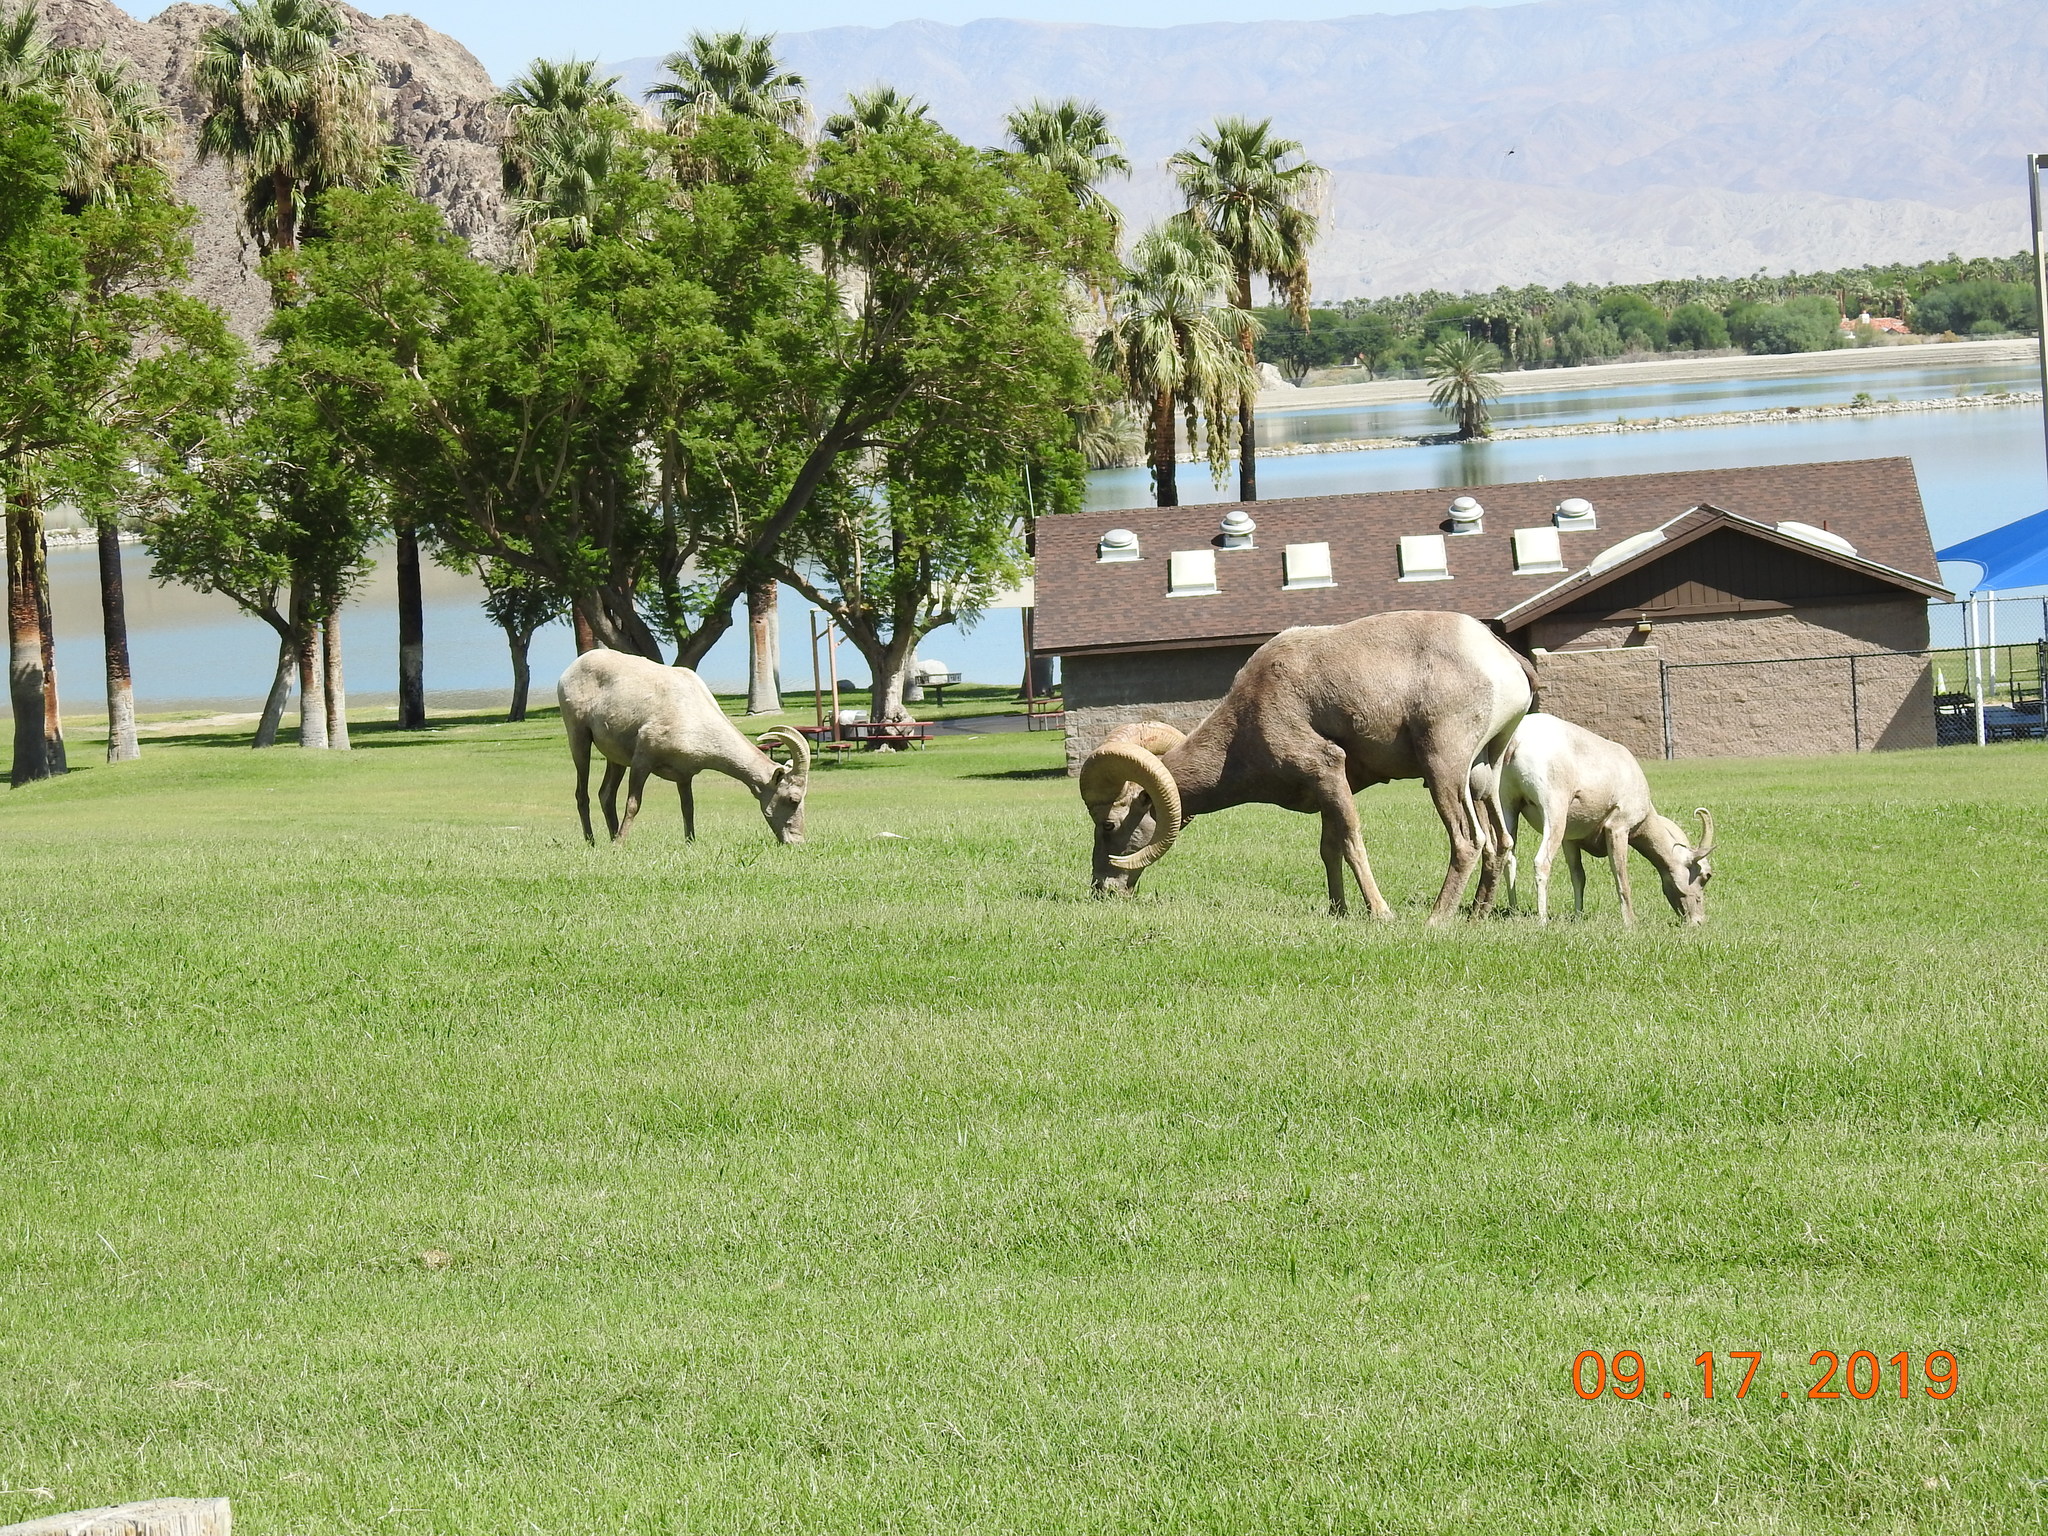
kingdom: Animalia
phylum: Chordata
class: Mammalia
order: Artiodactyla
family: Bovidae
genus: Ovis
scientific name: Ovis canadensis
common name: Bighorn sheep
